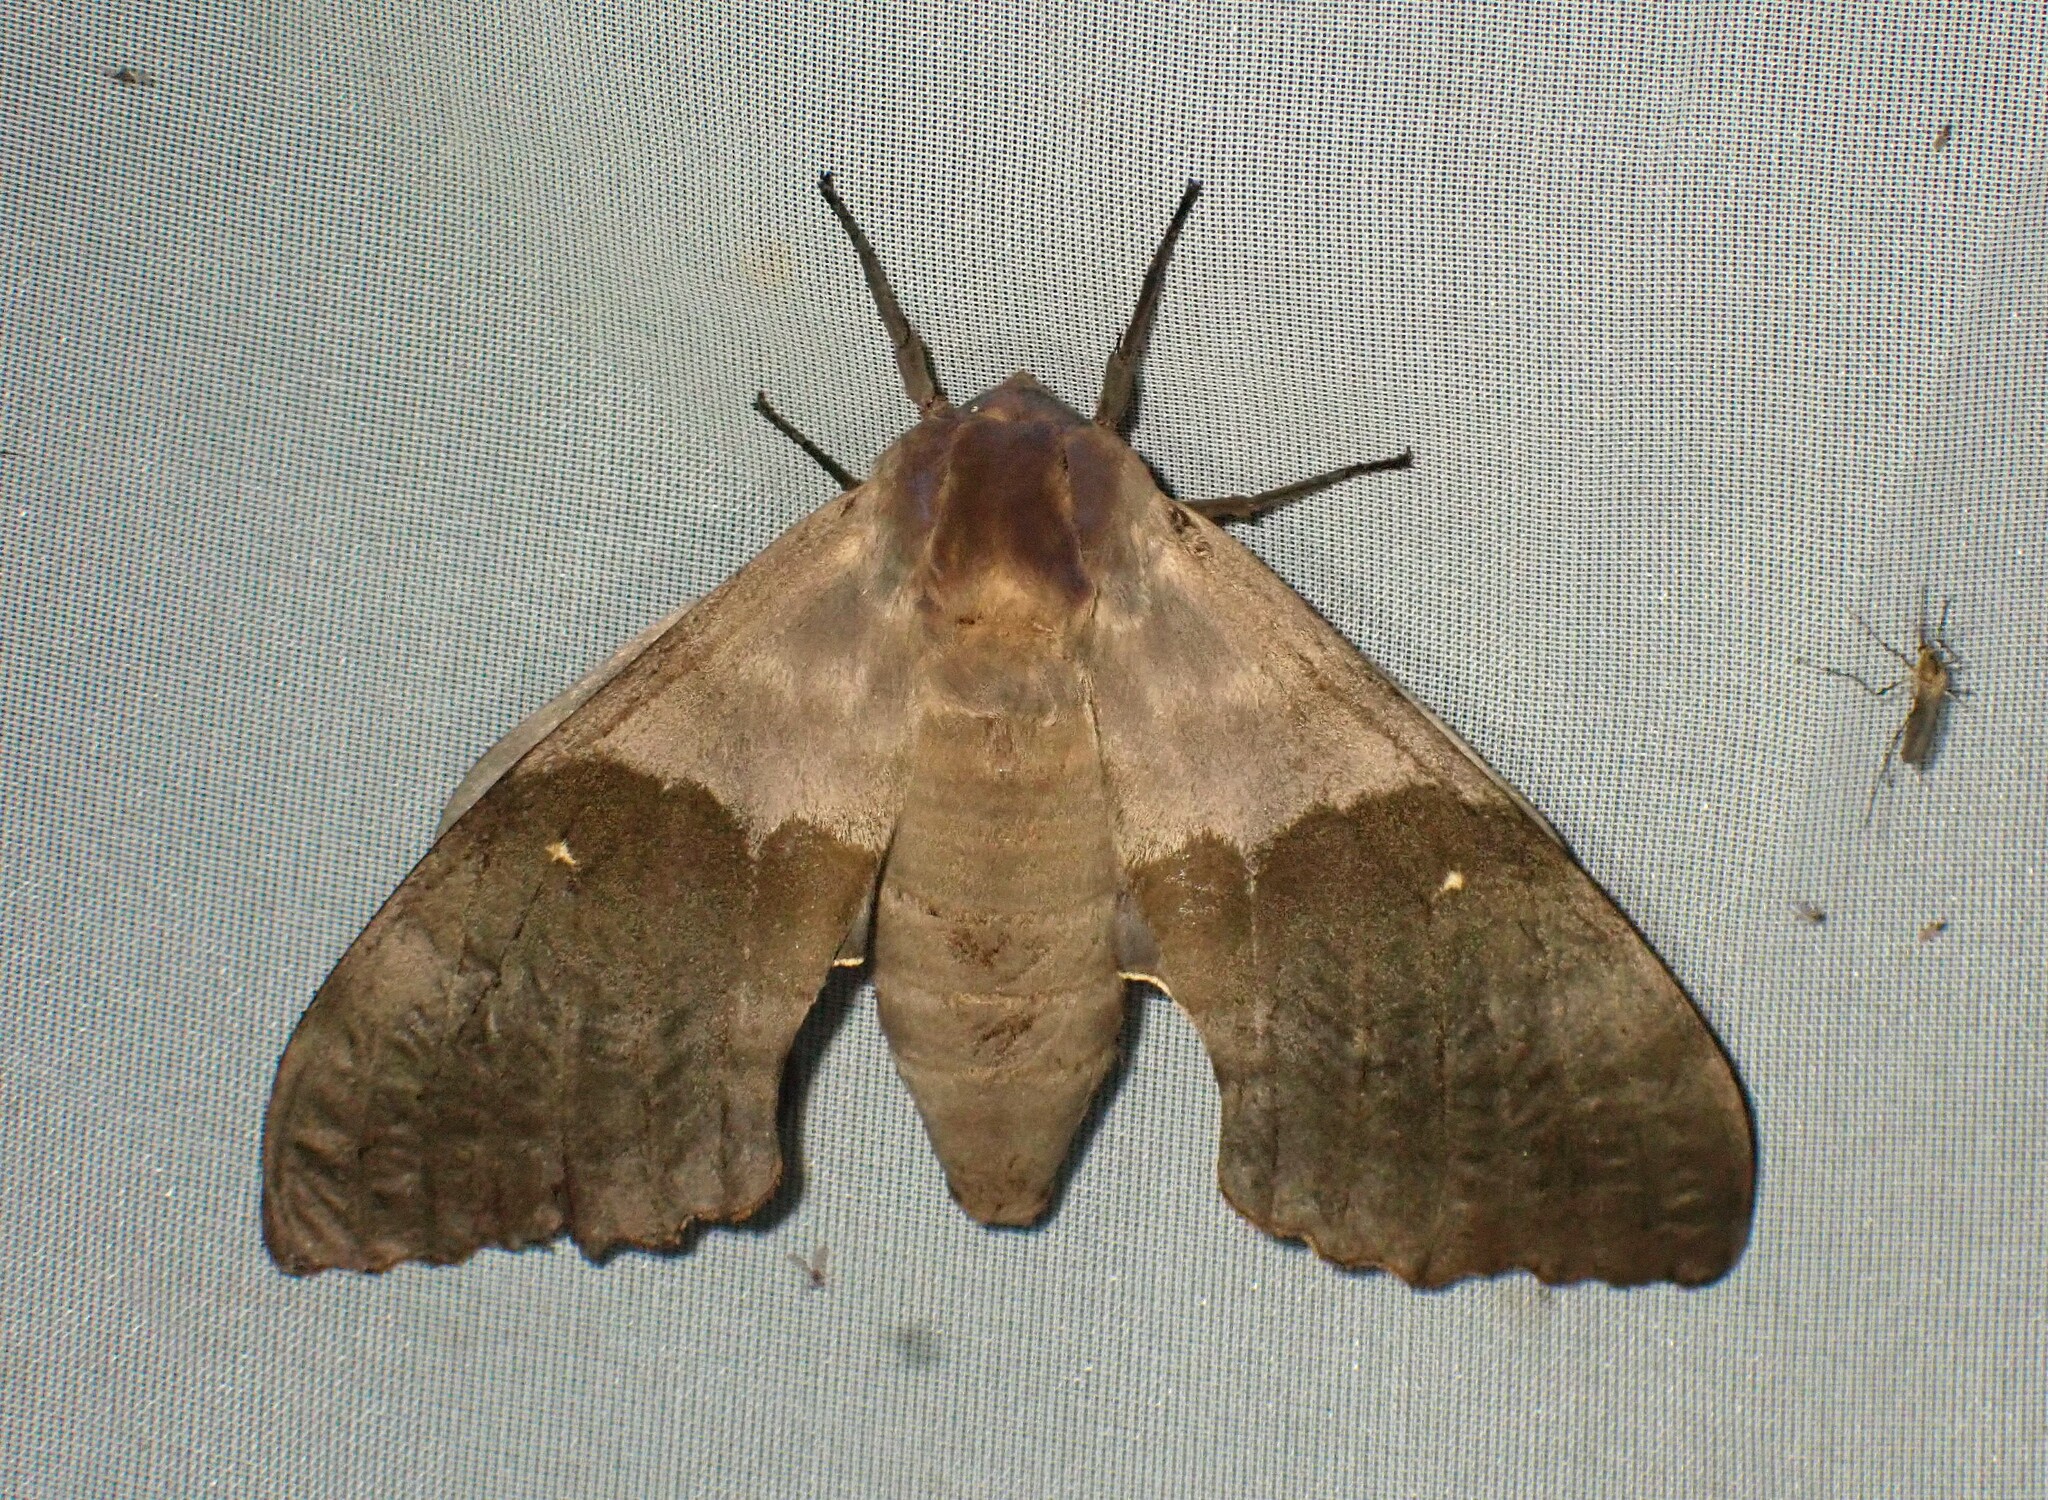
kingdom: Animalia
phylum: Arthropoda
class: Insecta
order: Lepidoptera
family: Sphingidae
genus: Pachysphinx
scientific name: Pachysphinx modesta
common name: Big poplar sphinx
